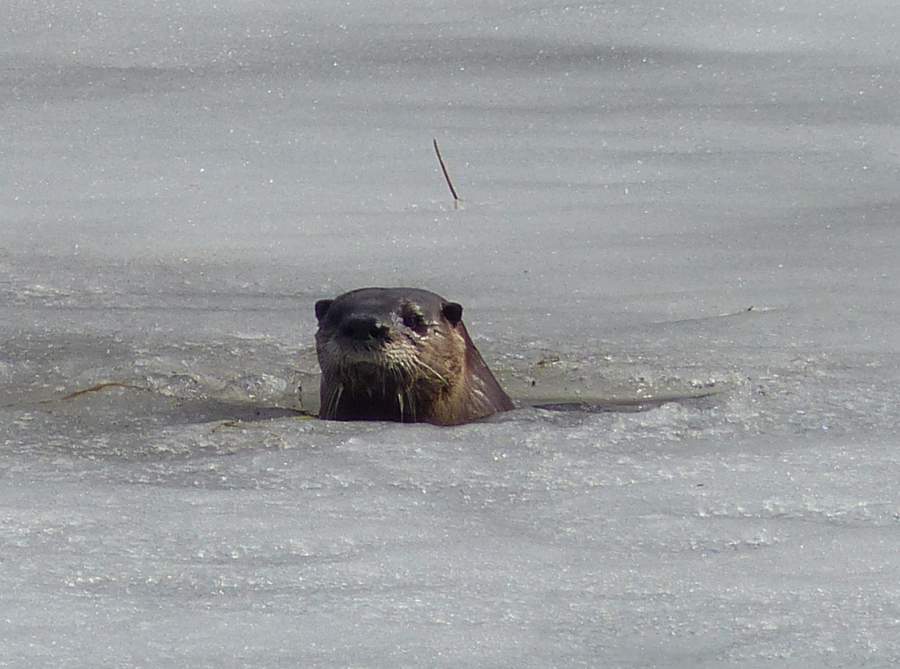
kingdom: Animalia
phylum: Chordata
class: Mammalia
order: Carnivora
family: Mustelidae
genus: Lontra
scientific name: Lontra canadensis
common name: North american river otter
